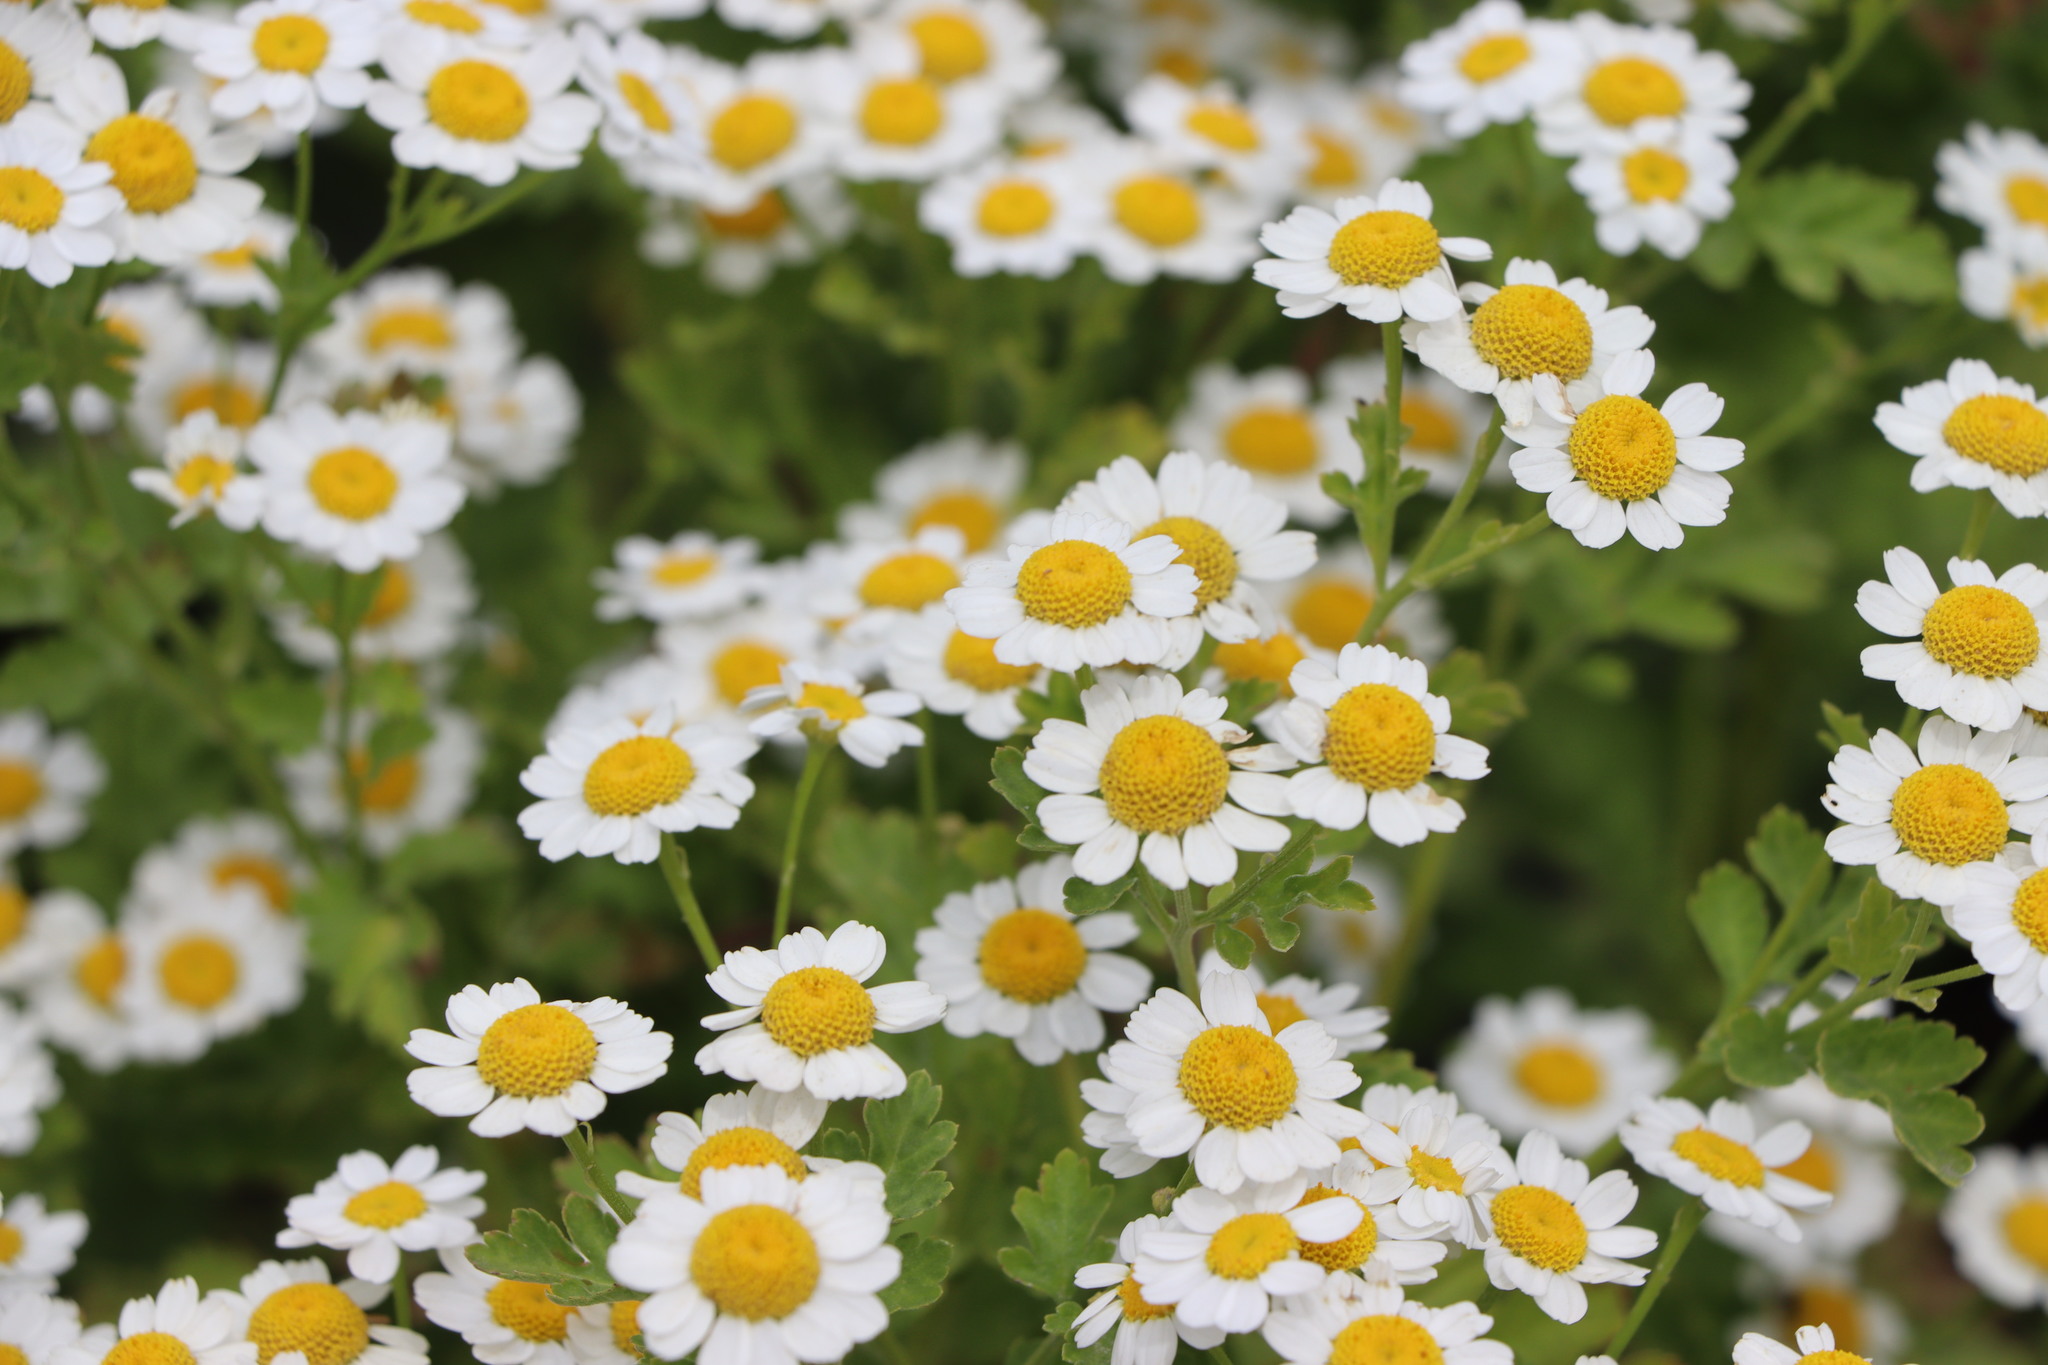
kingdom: Plantae
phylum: Tracheophyta
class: Magnoliopsida
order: Asterales
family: Asteraceae
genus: Tanacetum
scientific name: Tanacetum parthenium
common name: Feverfew
